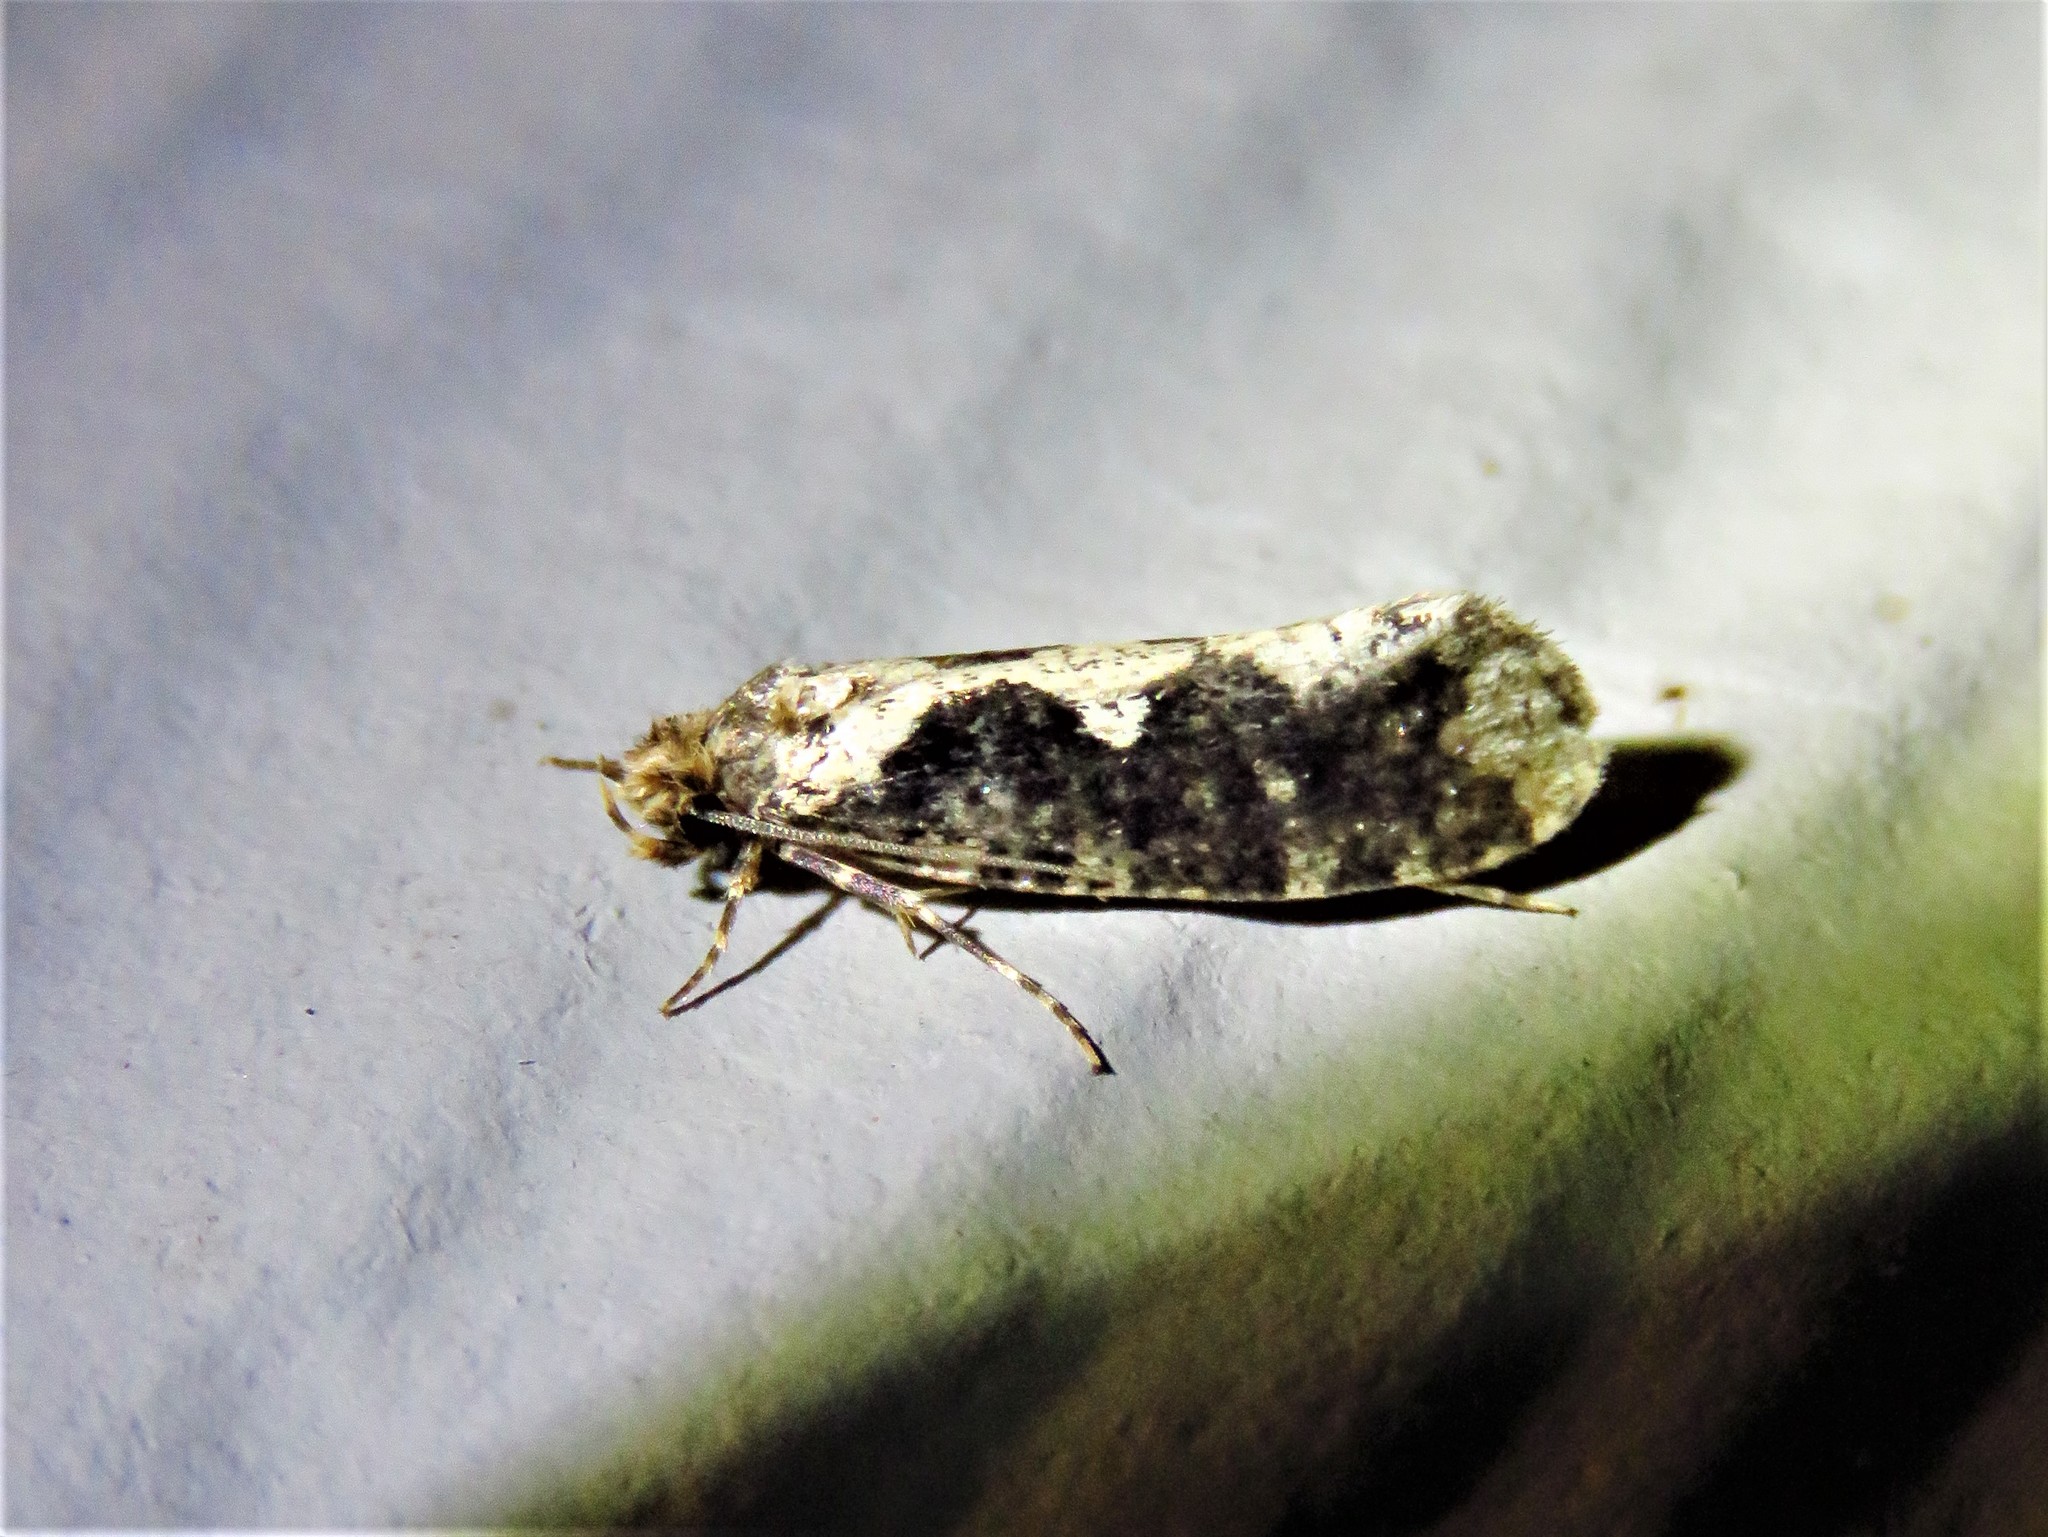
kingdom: Animalia
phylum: Arthropoda
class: Insecta
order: Lepidoptera
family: Tineidae
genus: Scardia
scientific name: Scardia anatomella
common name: Pied scardia
